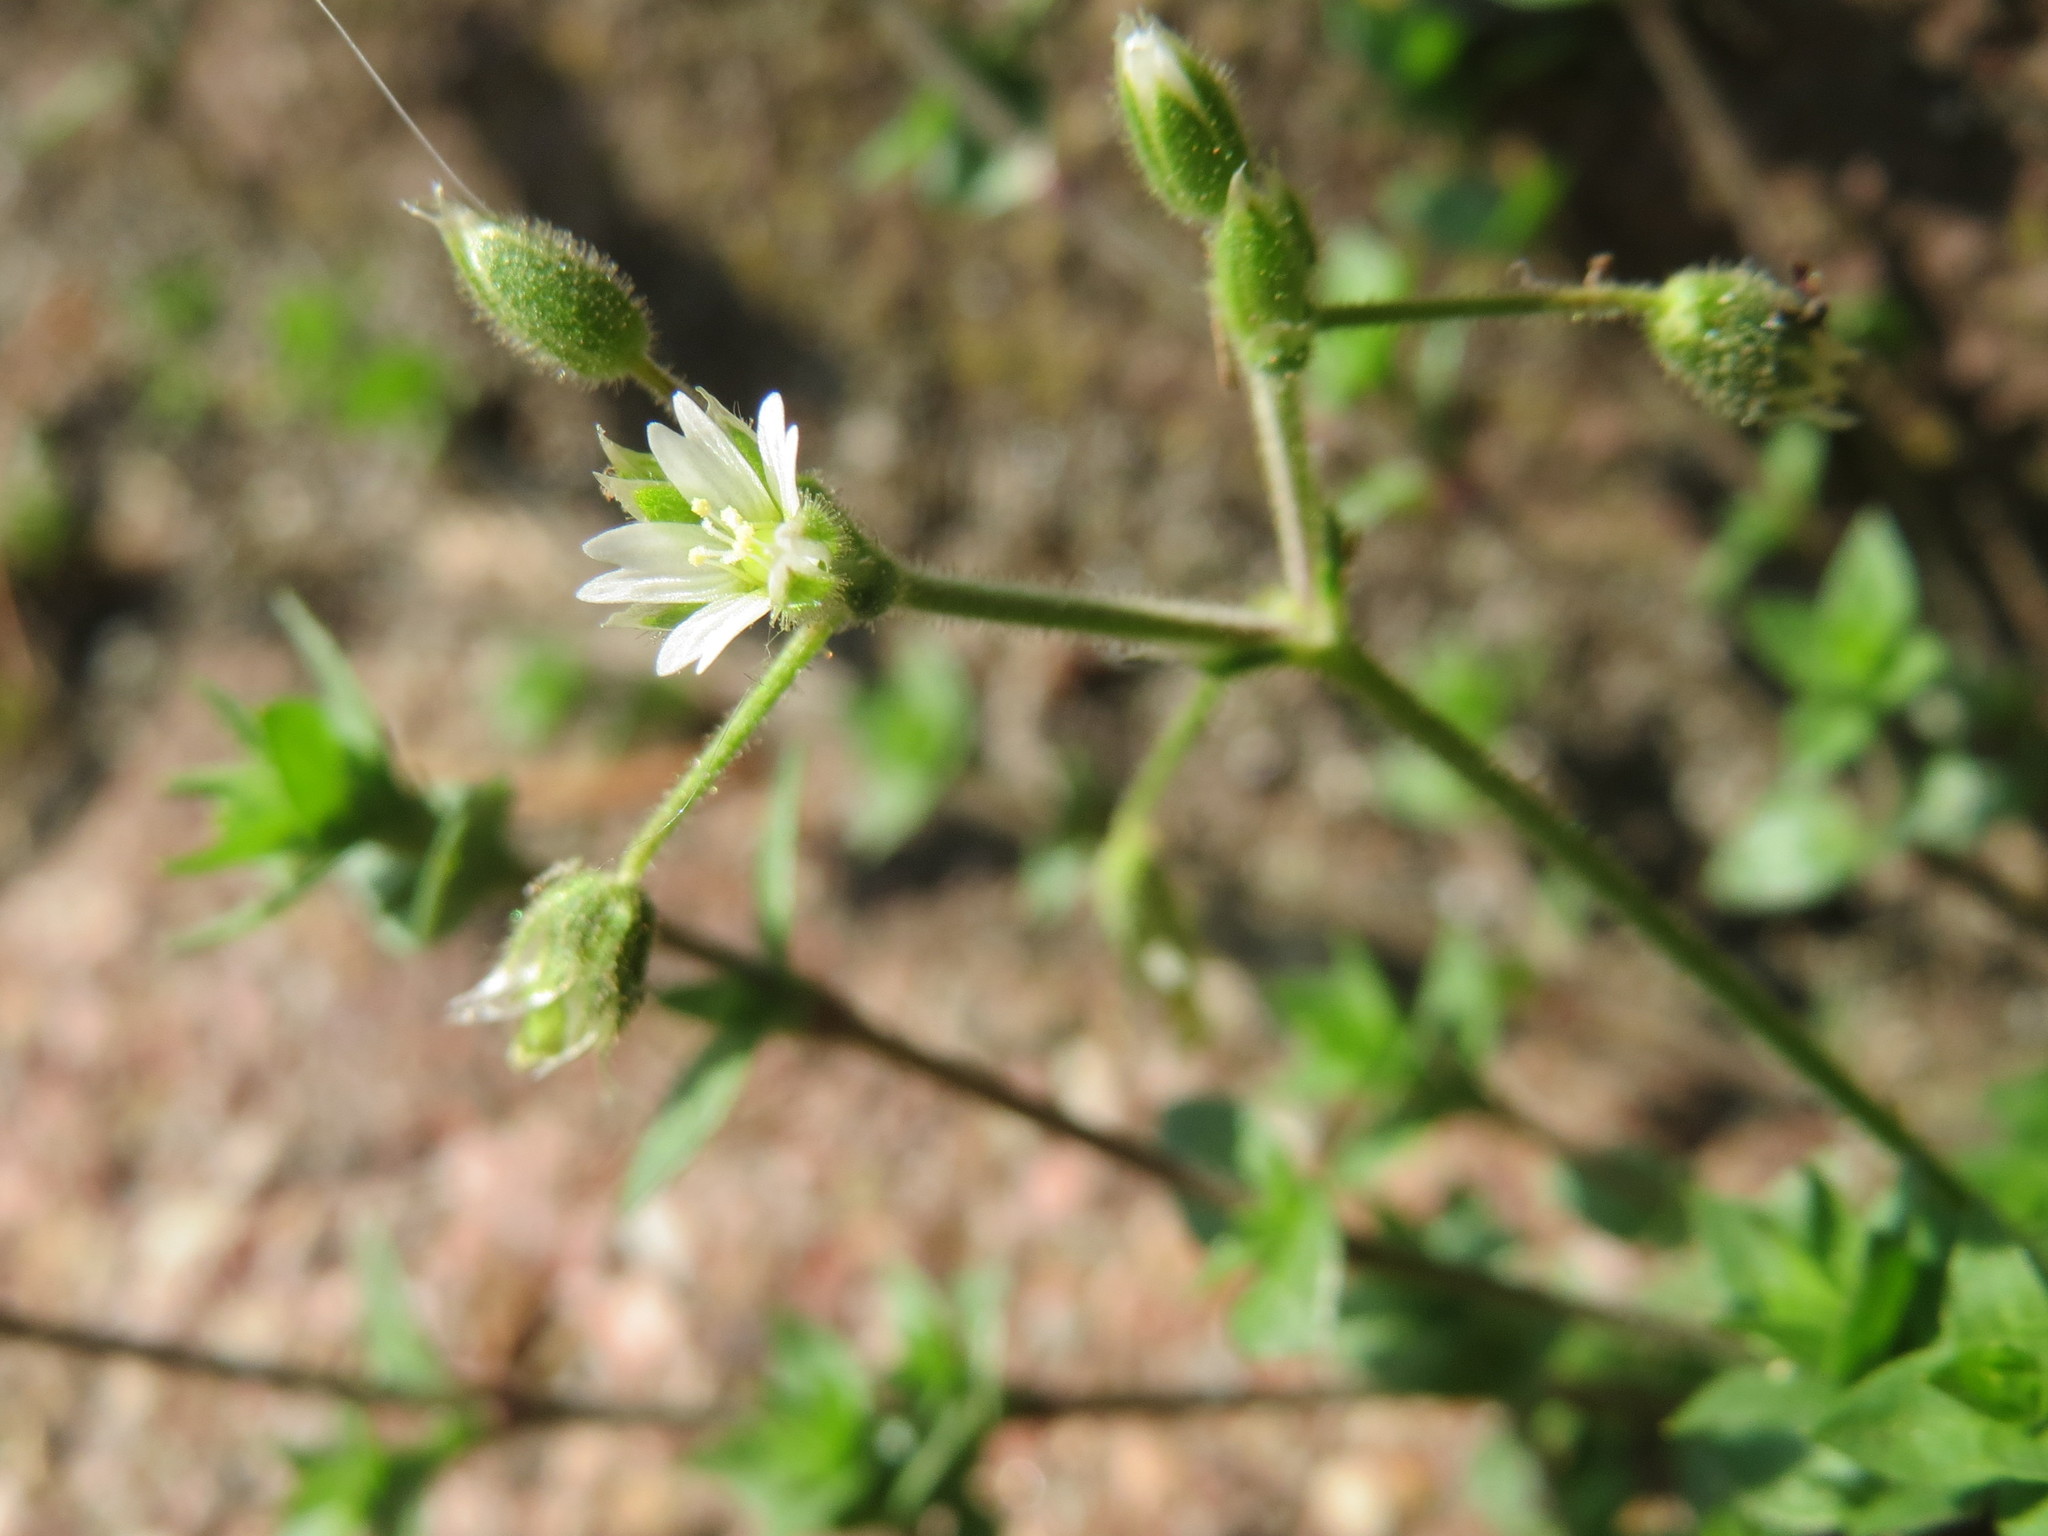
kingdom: Plantae
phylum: Tracheophyta
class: Magnoliopsida
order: Caryophyllales
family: Caryophyllaceae
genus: Cerastium
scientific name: Cerastium semidecandrum
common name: Little mouse-ear
